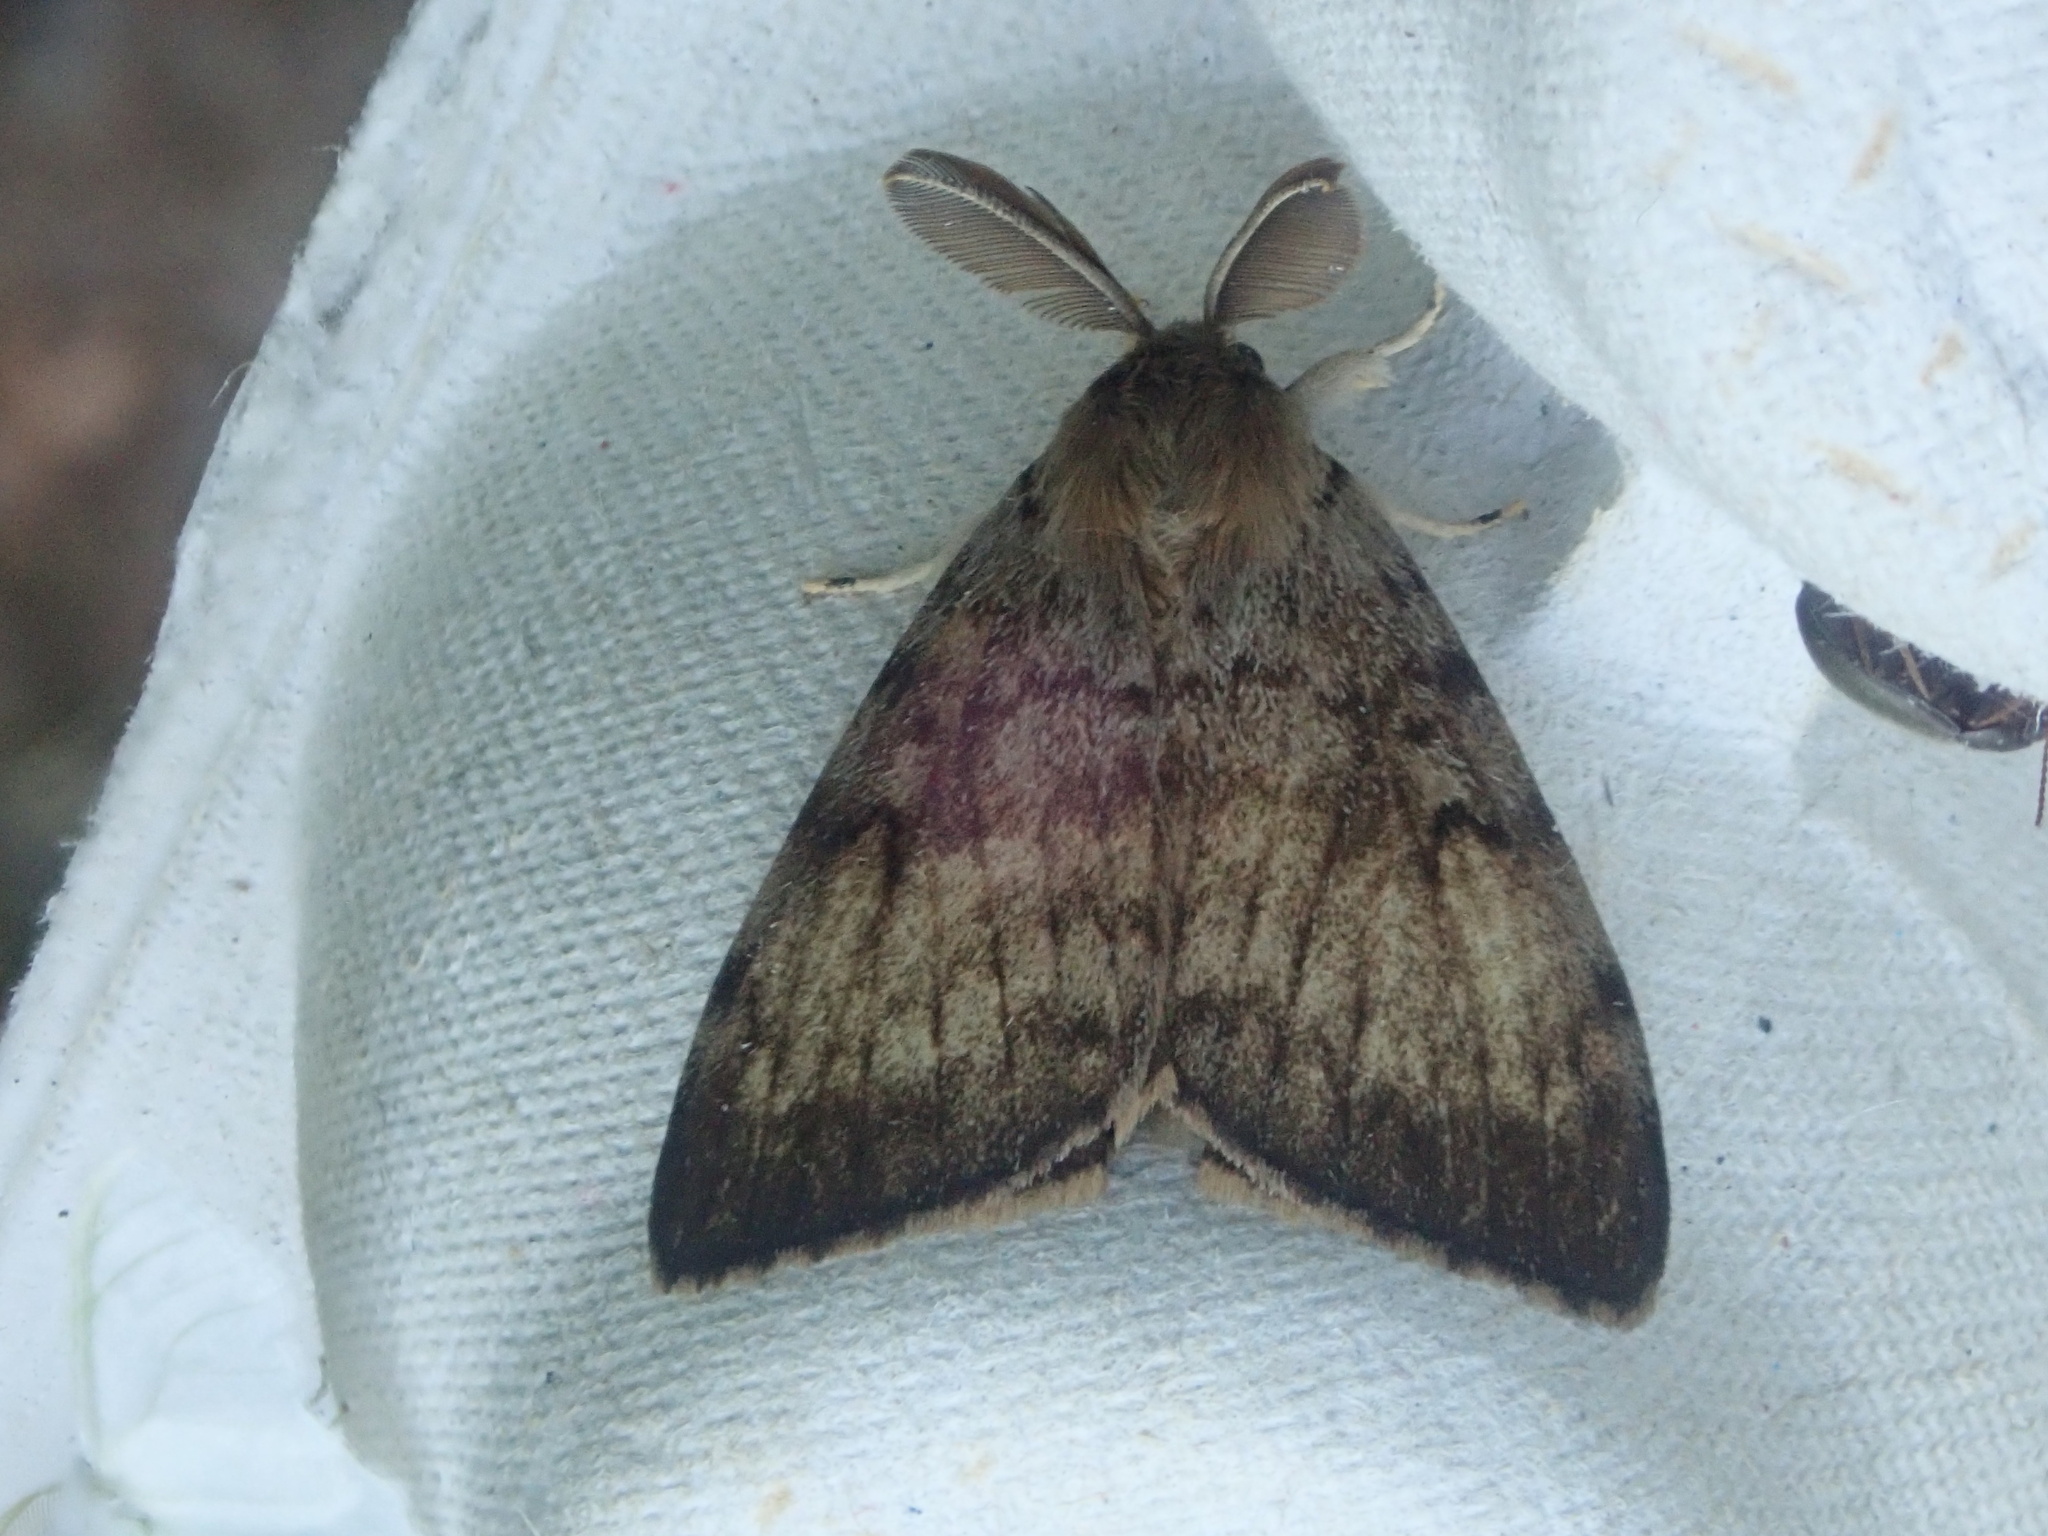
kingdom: Animalia
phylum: Arthropoda
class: Insecta
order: Lepidoptera
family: Erebidae
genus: Lymantria
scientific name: Lymantria dispar
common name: Gypsy moth
